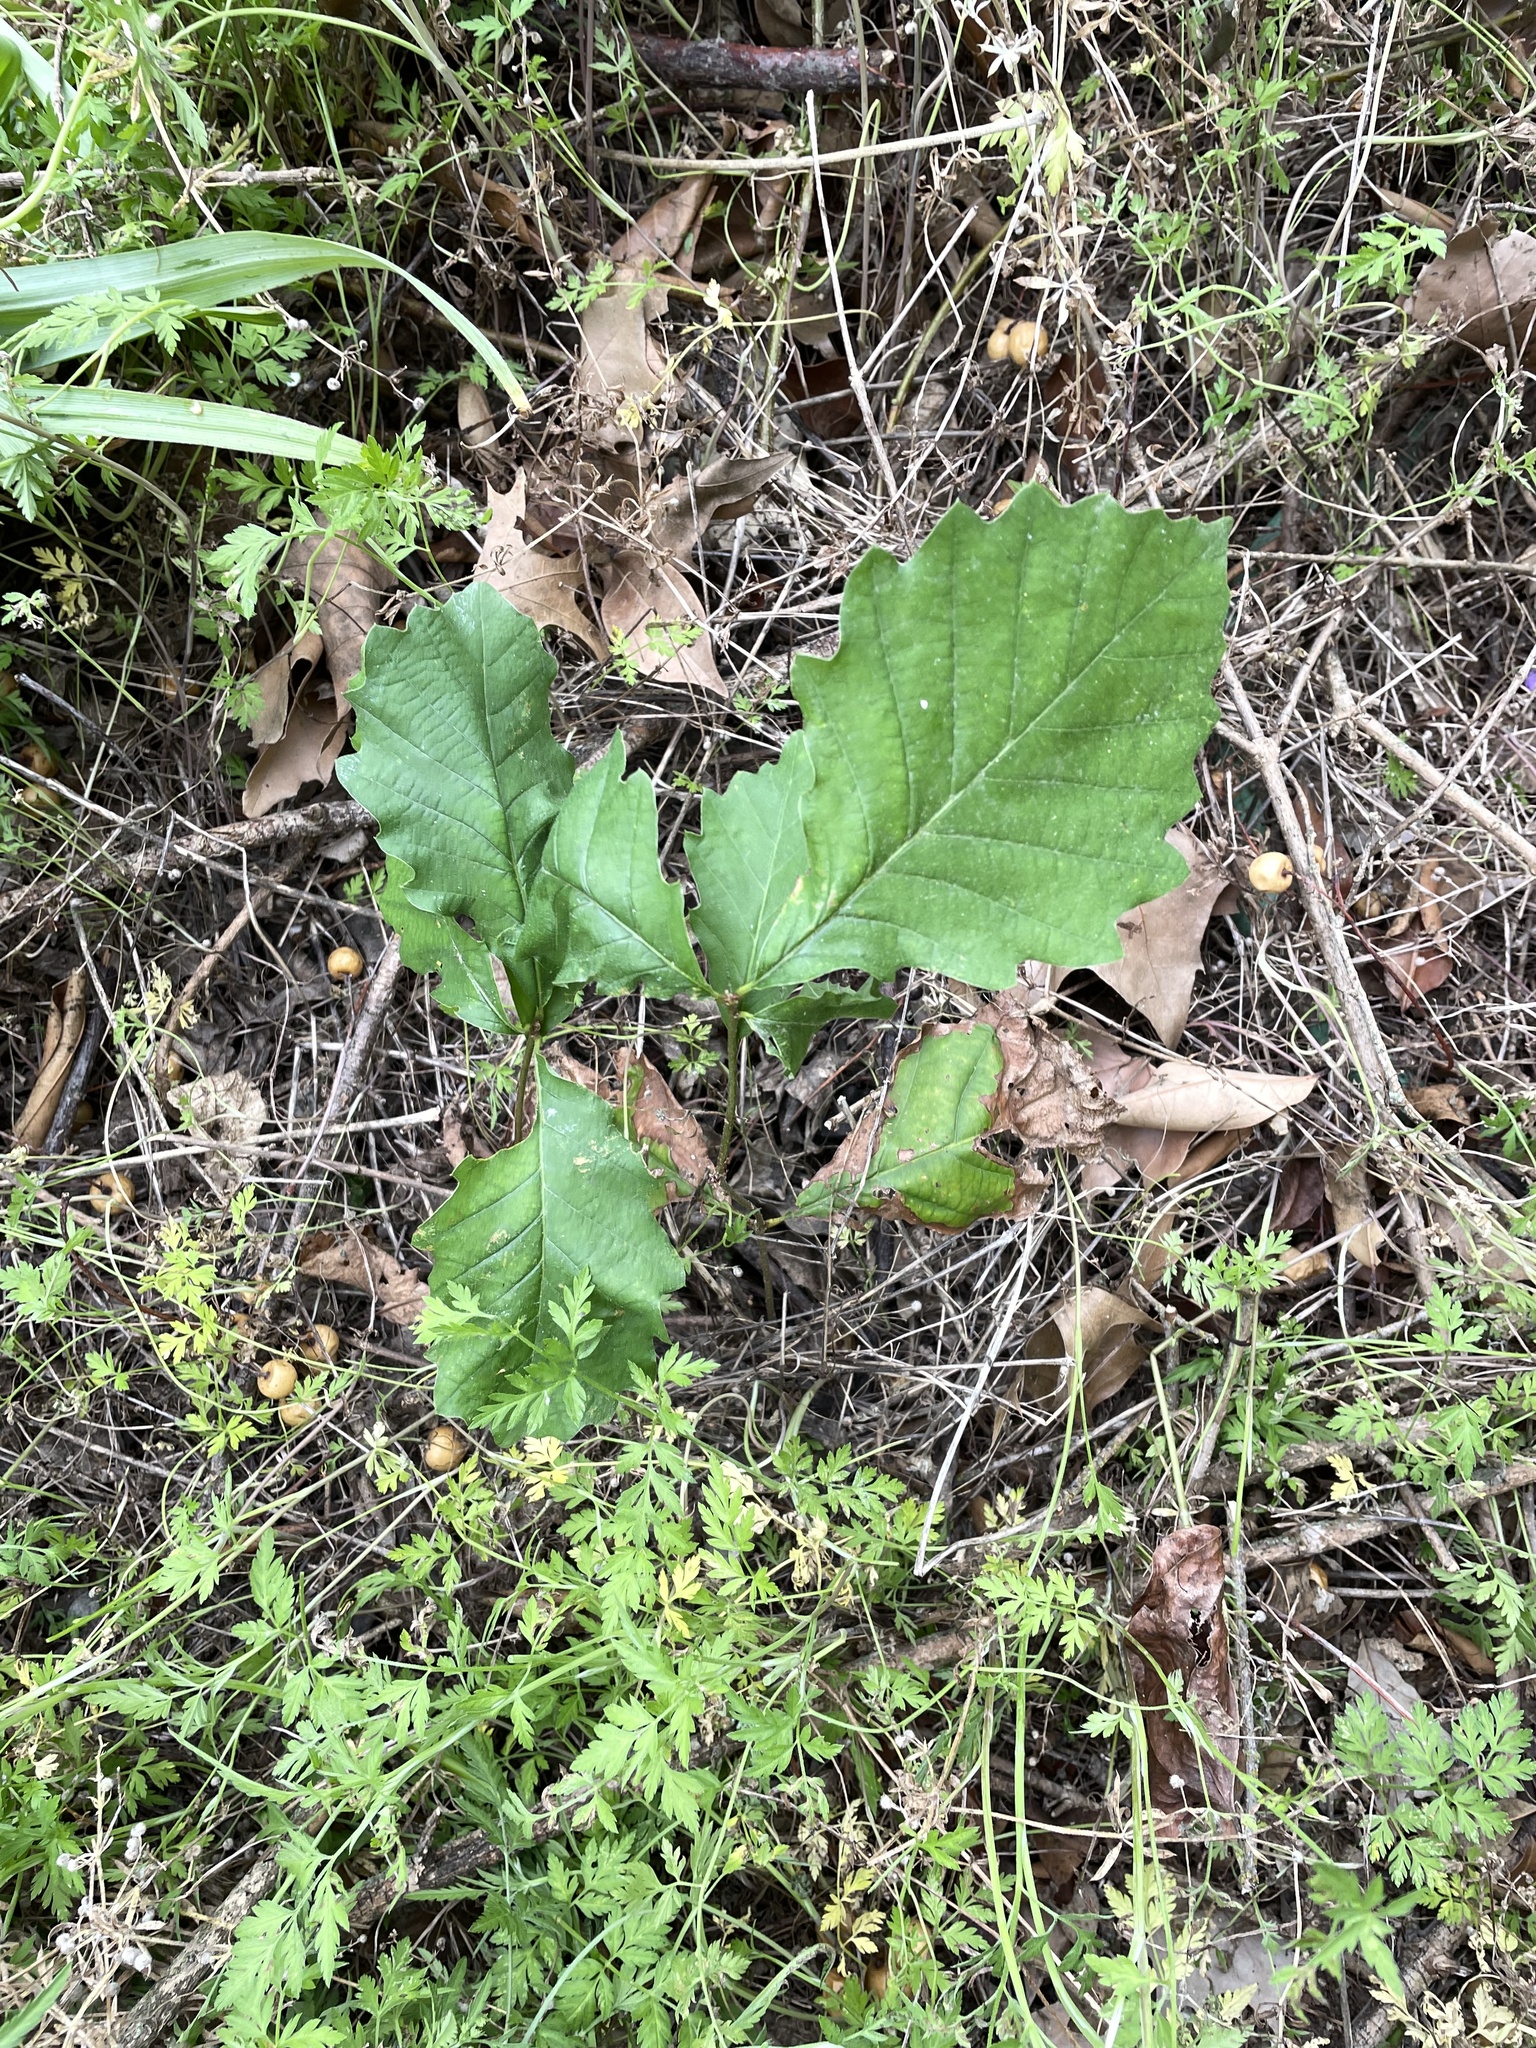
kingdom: Plantae
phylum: Tracheophyta
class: Magnoliopsida
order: Fagales
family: Fagaceae
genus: Quercus
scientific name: Quercus muehlenbergii
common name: Chinkapin oak
